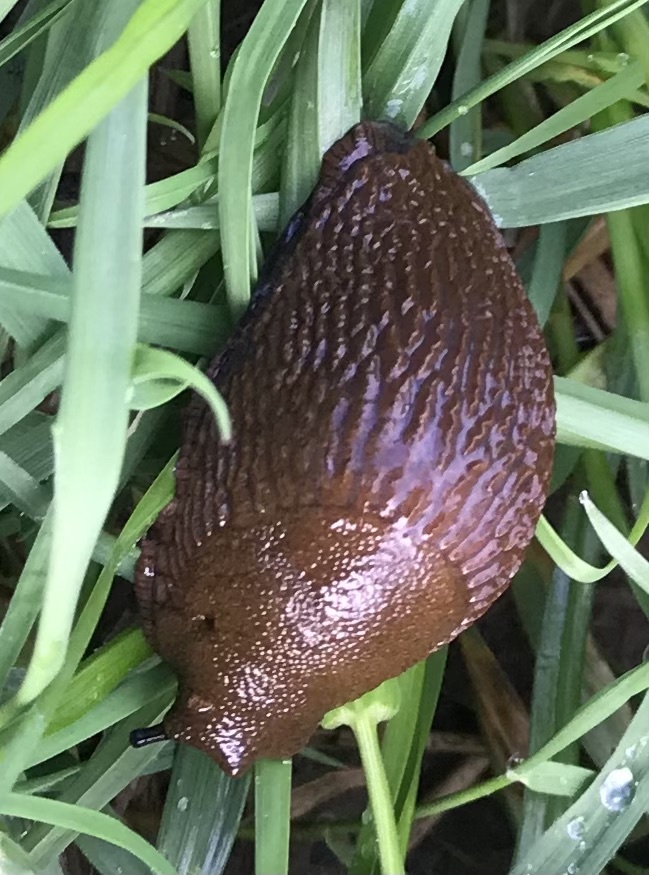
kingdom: Animalia
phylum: Mollusca
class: Gastropoda
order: Stylommatophora
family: Arionidae
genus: Arion
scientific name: Arion rufus
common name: Chocolate arion
